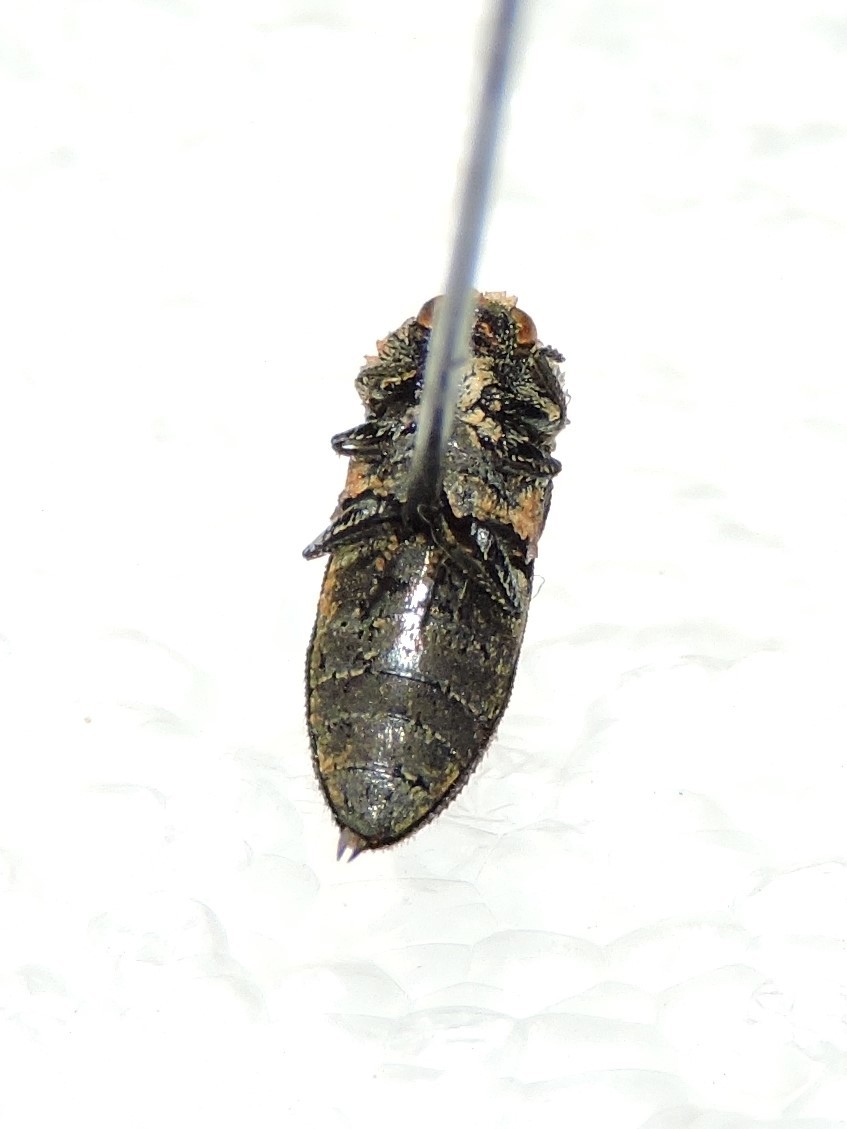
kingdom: Animalia
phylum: Arthropoda
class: Insecta
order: Coleoptera
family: Buprestidae
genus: Acmaeoderella
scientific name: Acmaeoderella flavofasciata
